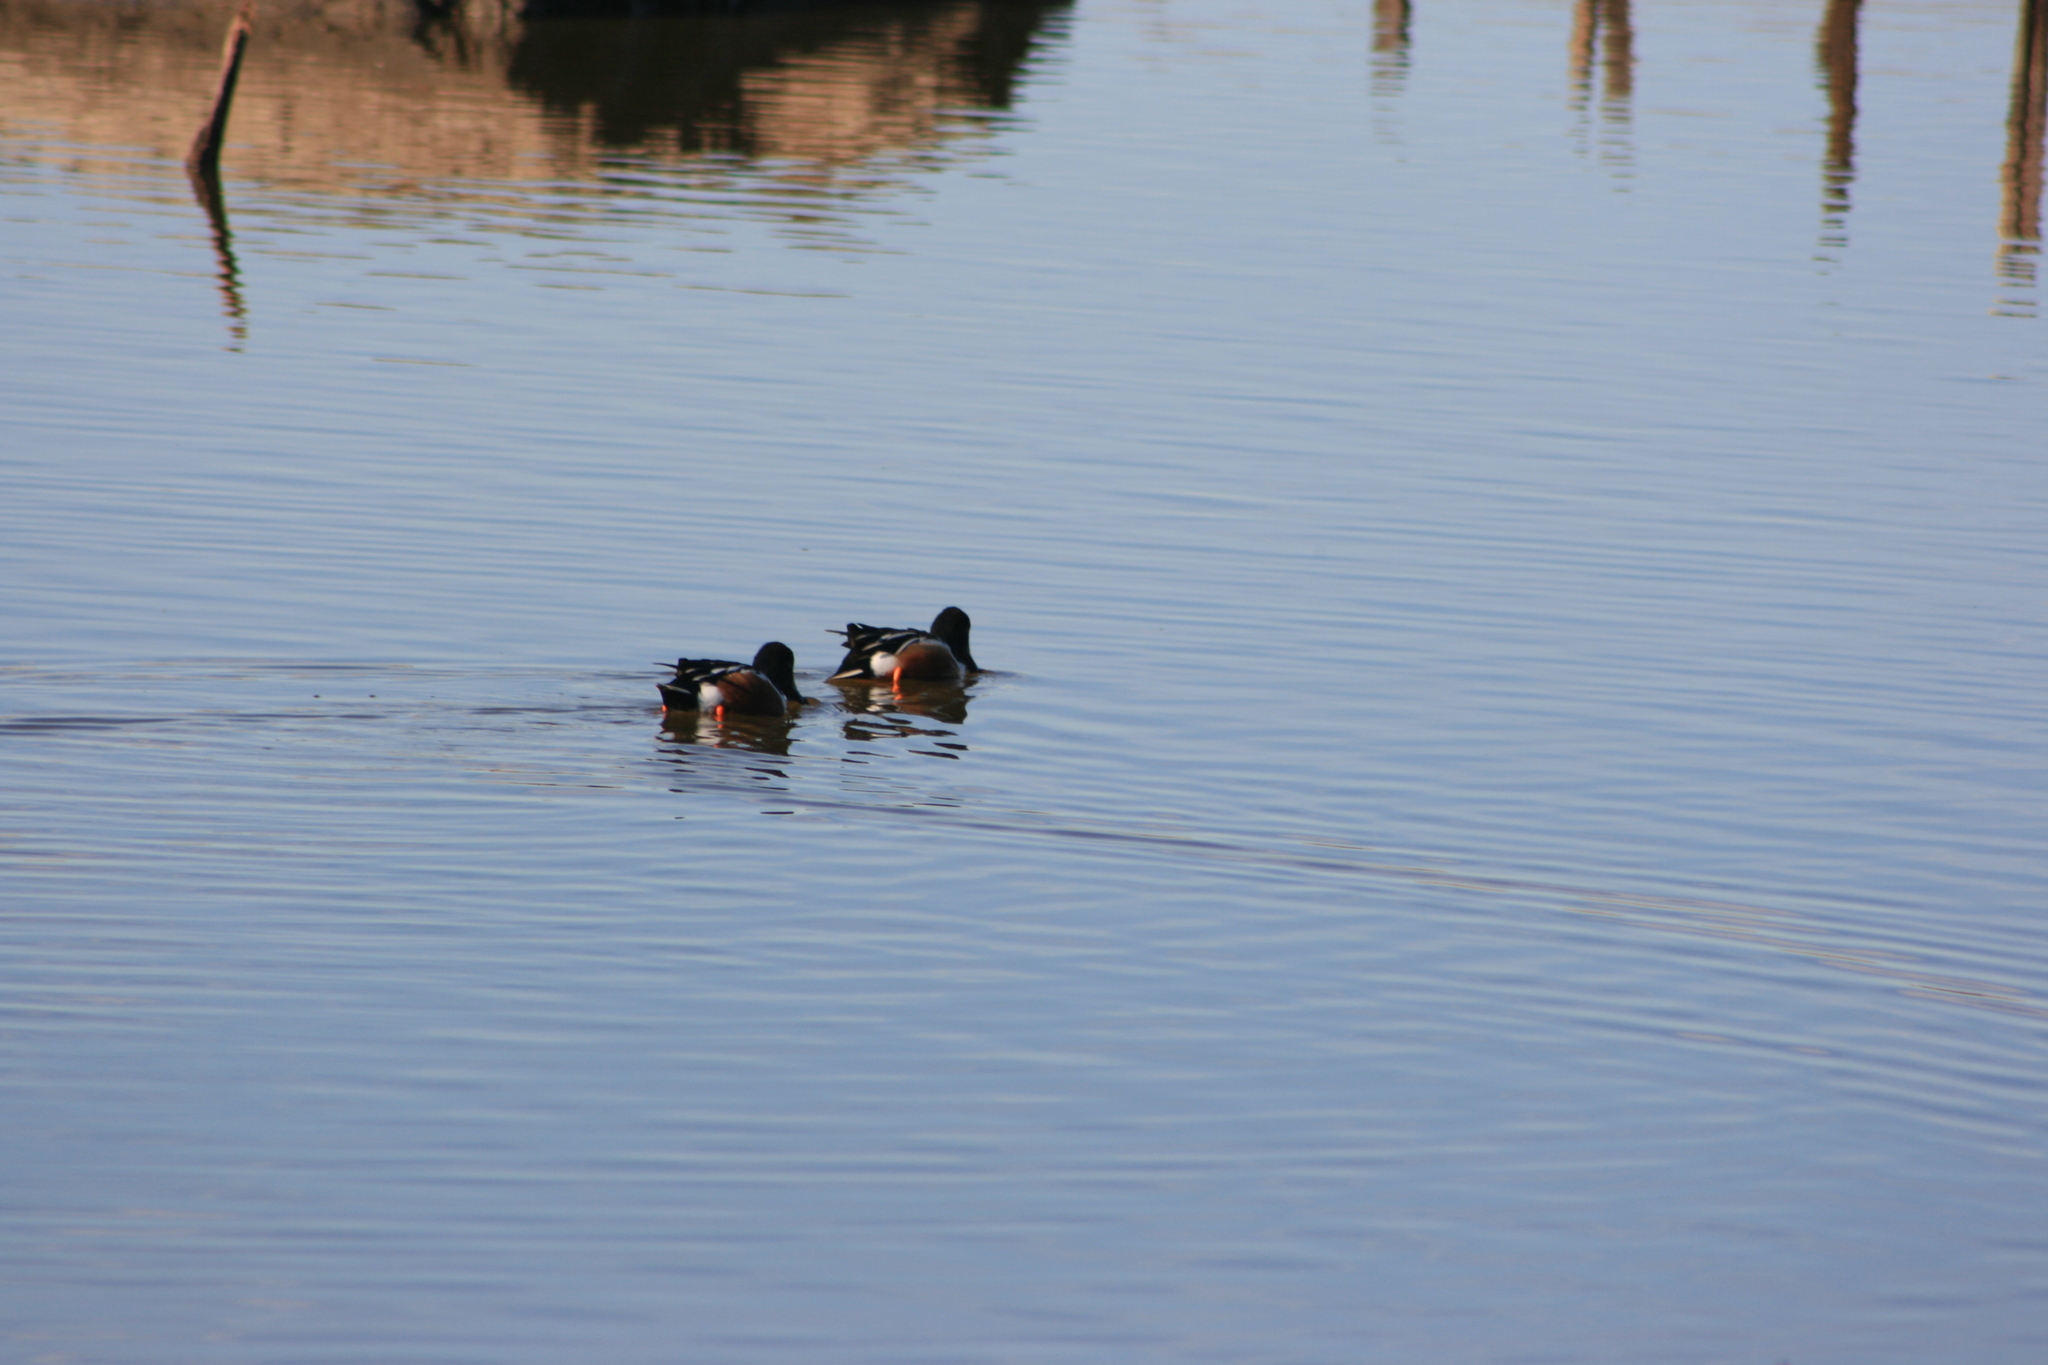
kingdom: Animalia
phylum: Chordata
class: Aves
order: Anseriformes
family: Anatidae
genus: Spatula
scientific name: Spatula clypeata
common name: Northern shoveler
